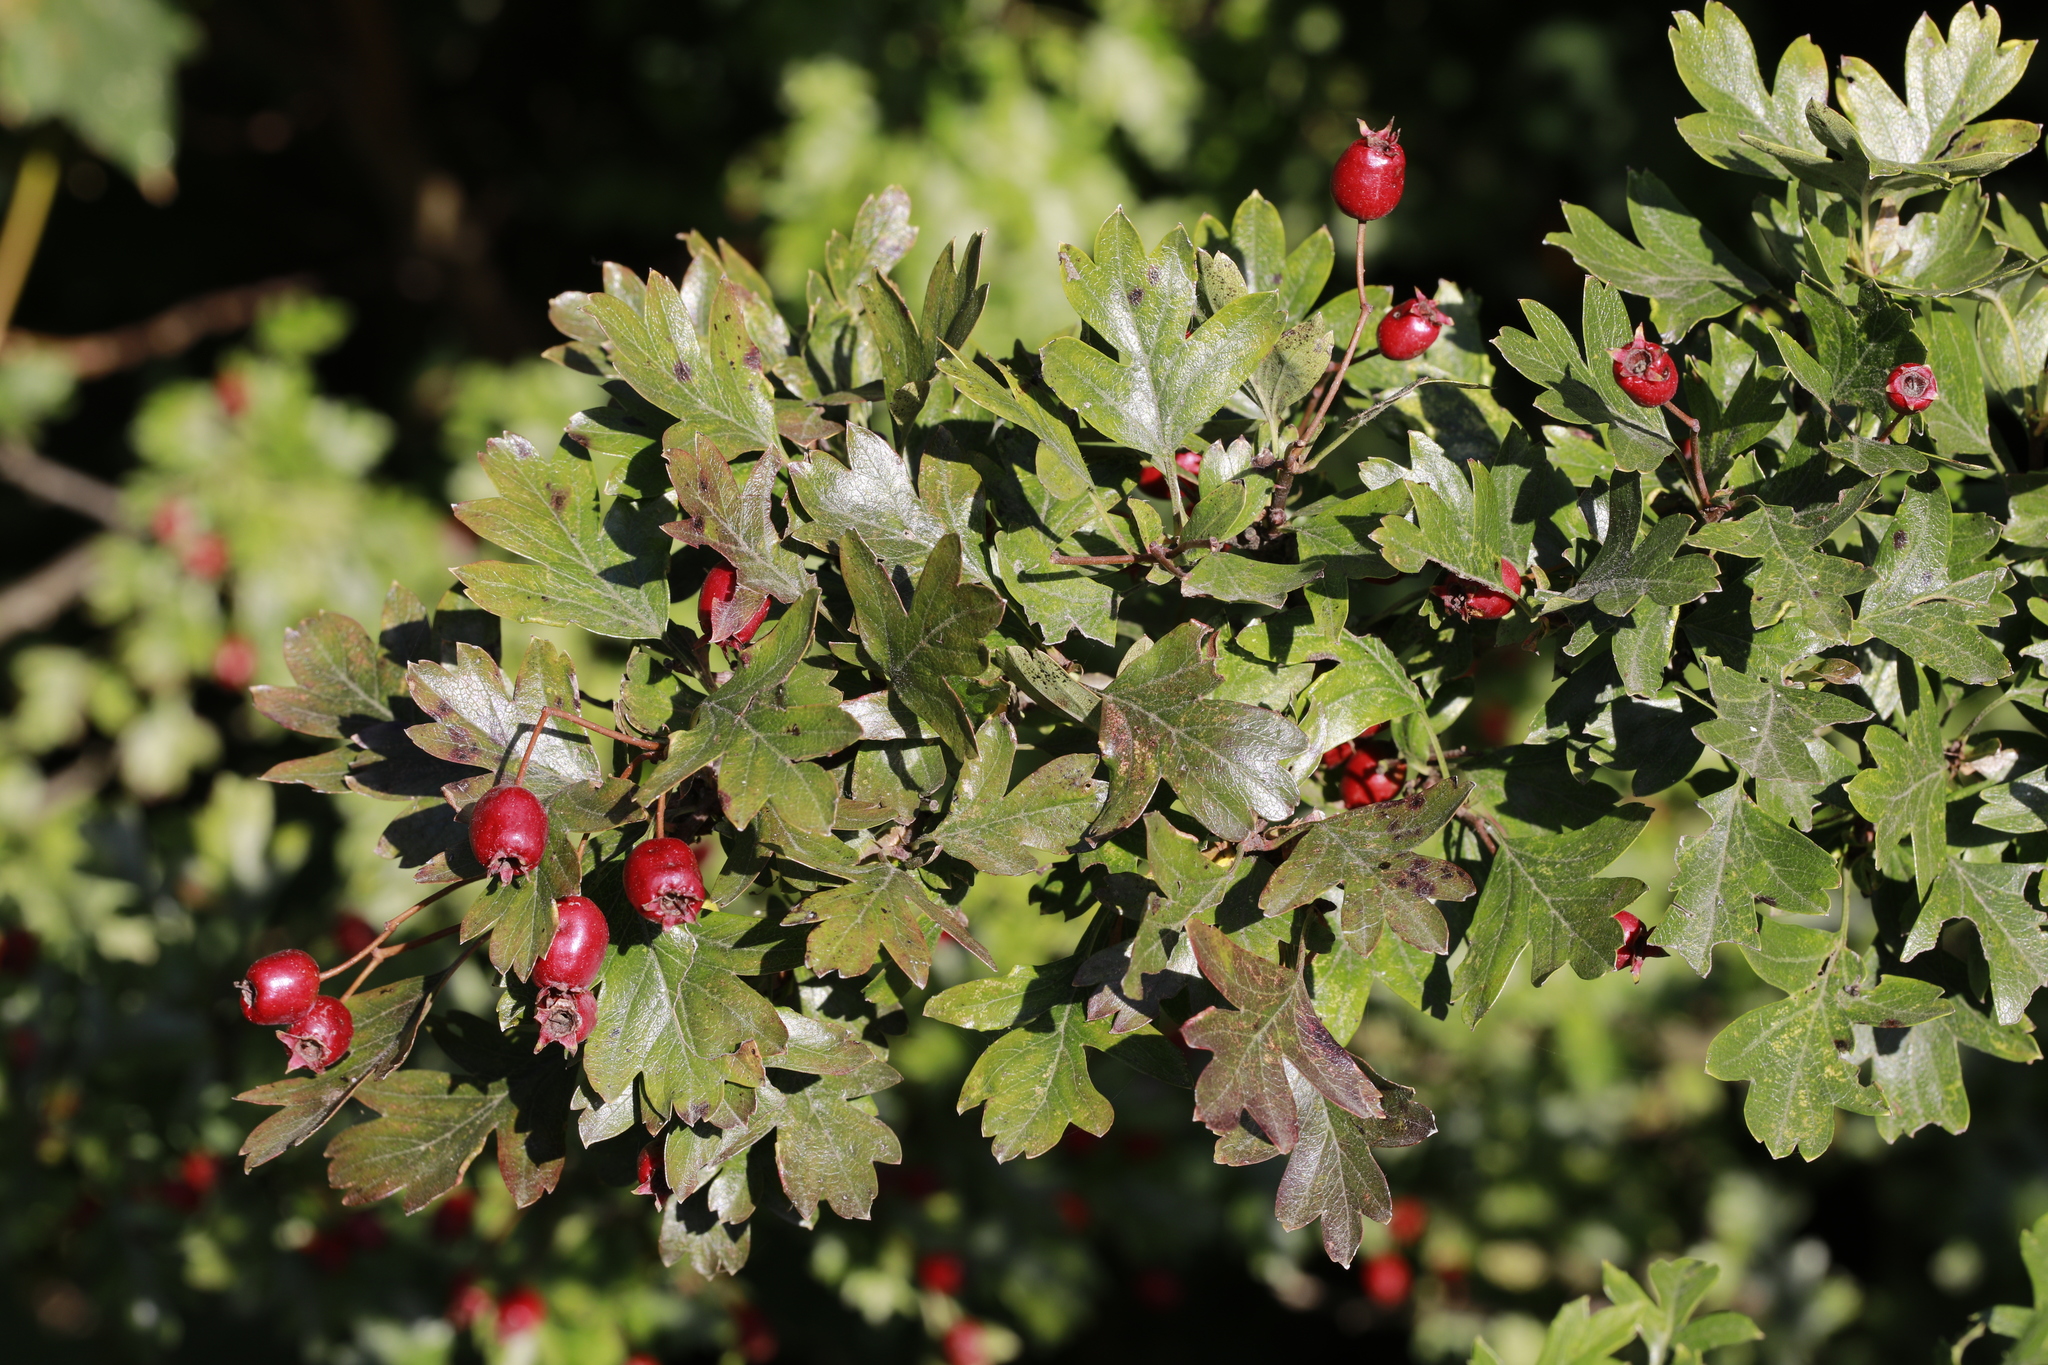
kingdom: Plantae
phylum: Tracheophyta
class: Magnoliopsida
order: Rosales
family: Rosaceae
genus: Crataegus
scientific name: Crataegus monogyna
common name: Hawthorn
